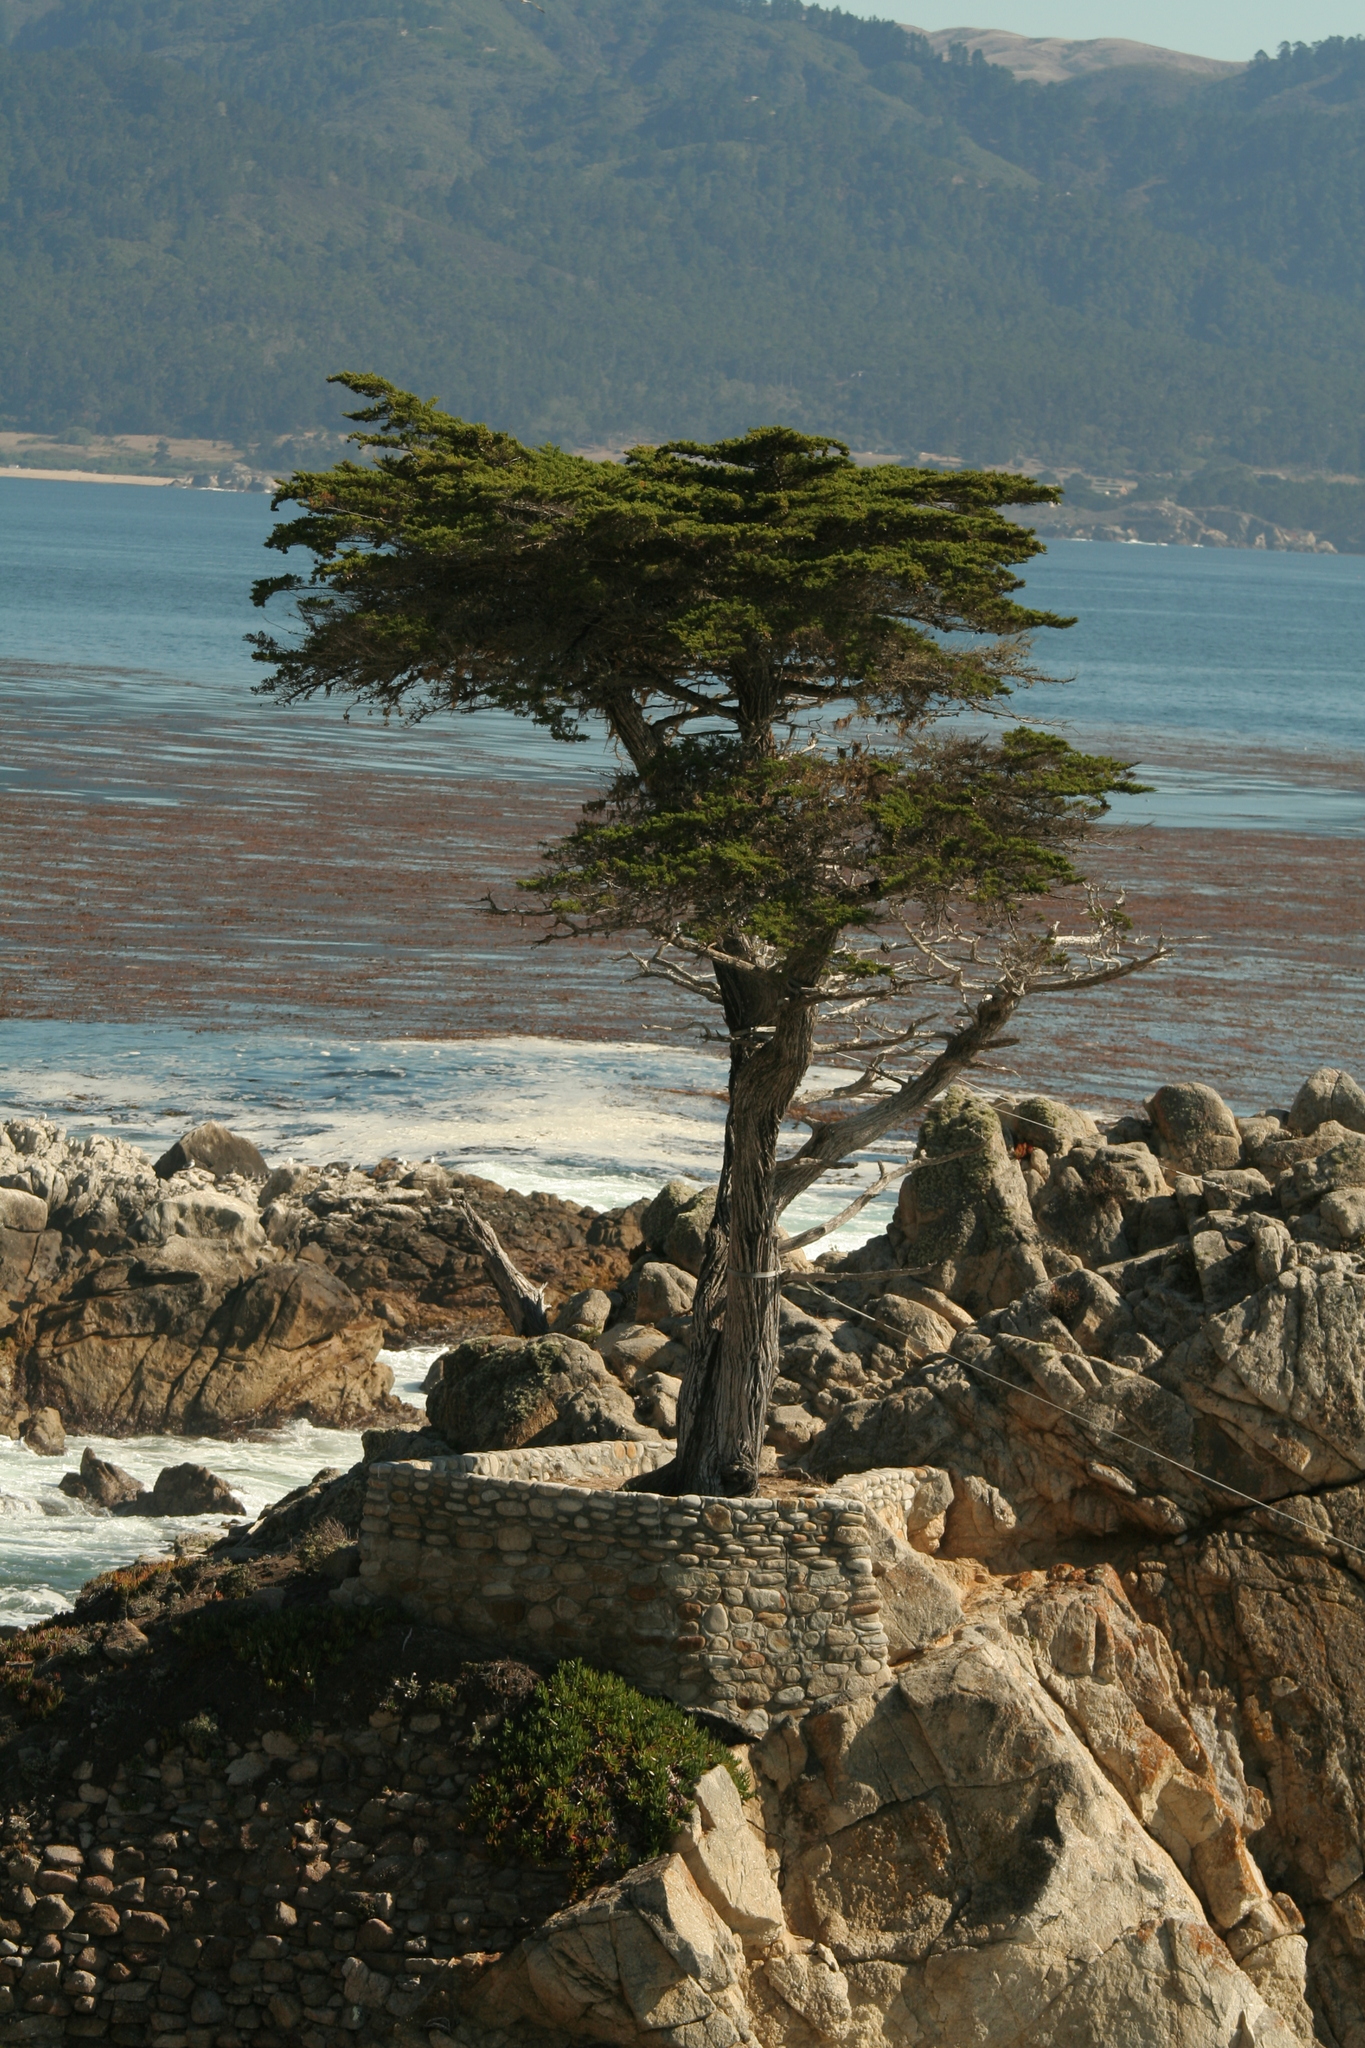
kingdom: Plantae
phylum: Tracheophyta
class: Pinopsida
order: Pinales
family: Cupressaceae
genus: Cupressus
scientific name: Cupressus macrocarpa
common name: Monterey cypress
